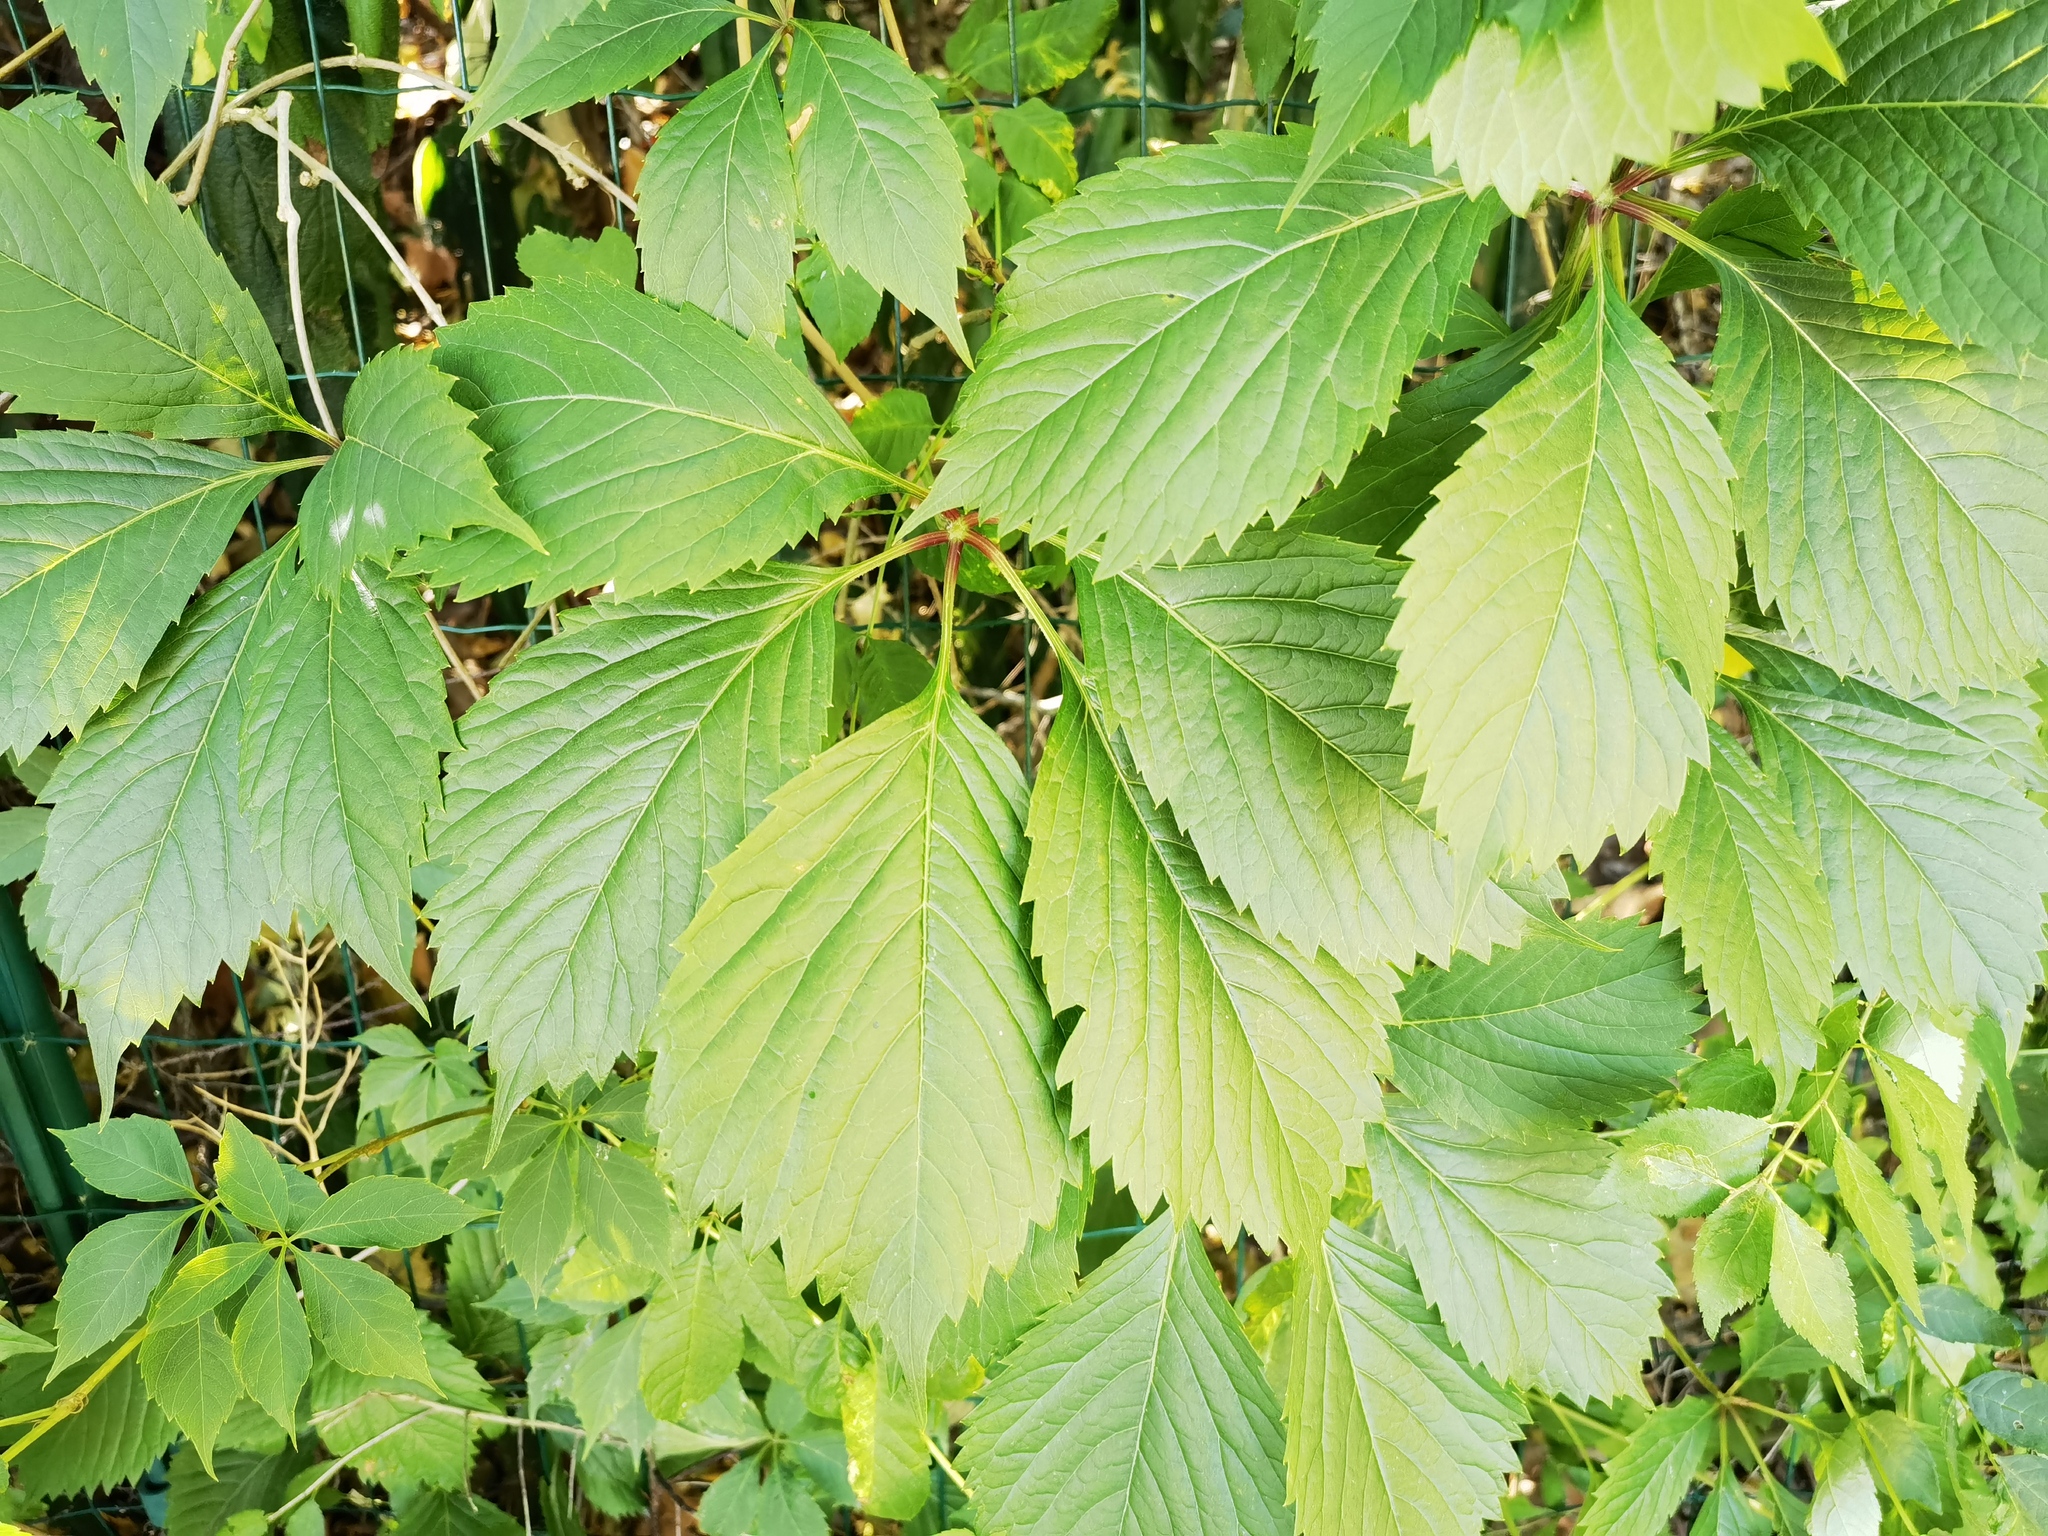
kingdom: Plantae
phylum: Tracheophyta
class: Magnoliopsida
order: Vitales
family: Vitaceae
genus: Parthenocissus
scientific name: Parthenocissus inserta
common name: False virginia-creeper
